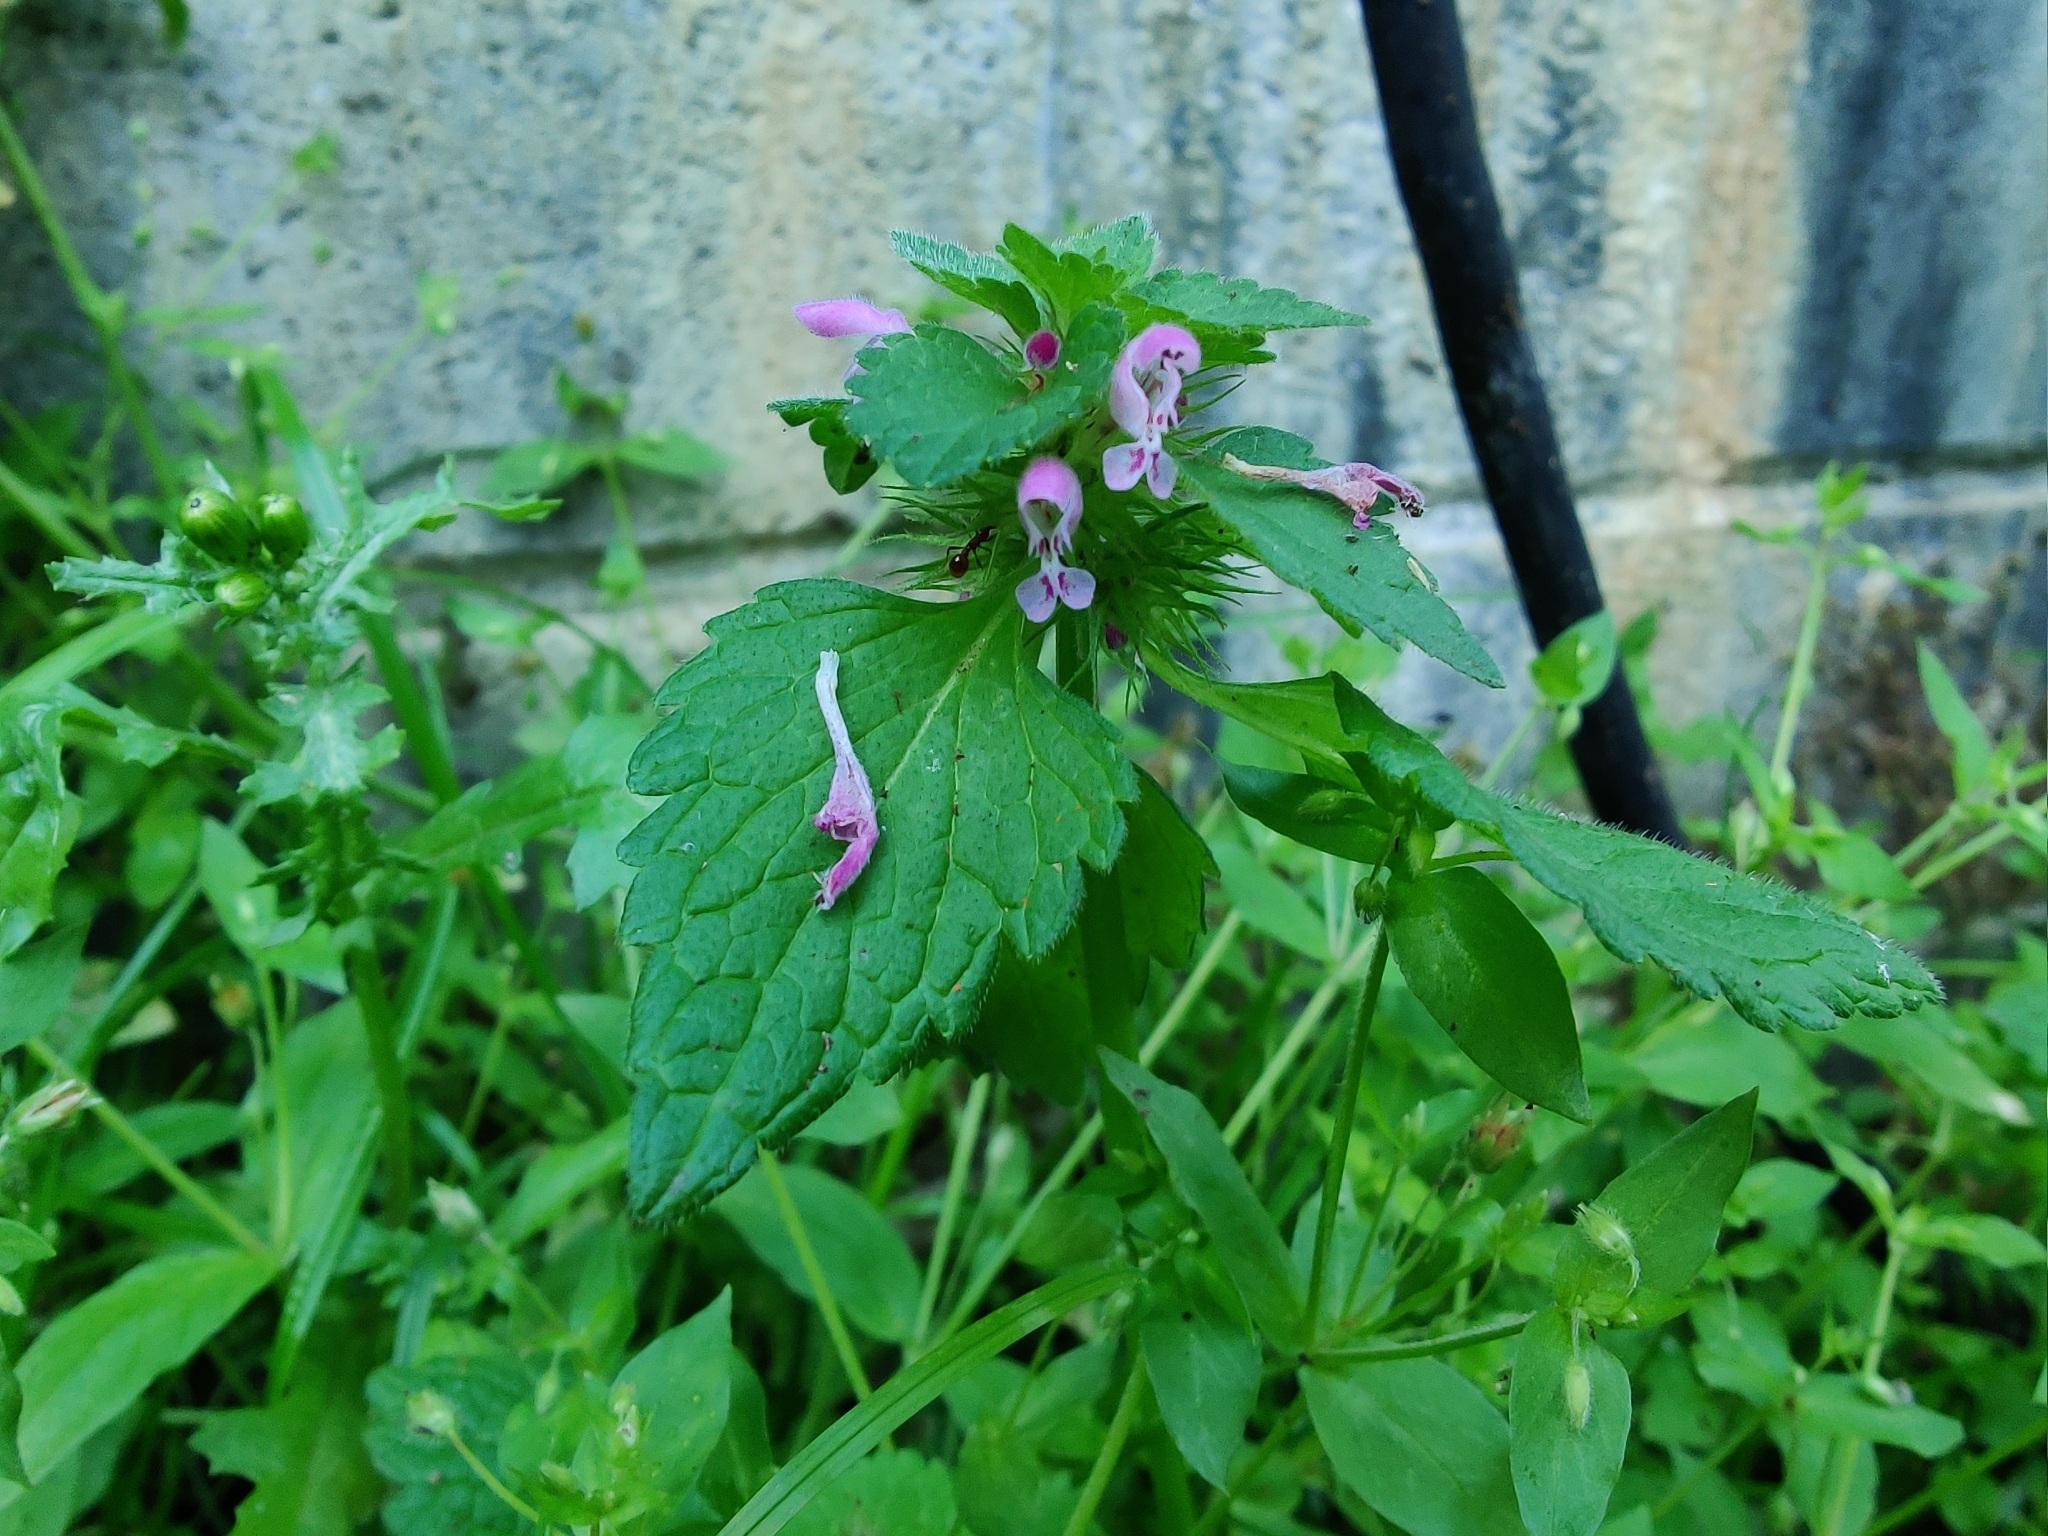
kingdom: Plantae
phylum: Tracheophyta
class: Magnoliopsida
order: Lamiales
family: Lamiaceae
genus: Lamium
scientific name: Lamium purpureum
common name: Red dead-nettle
